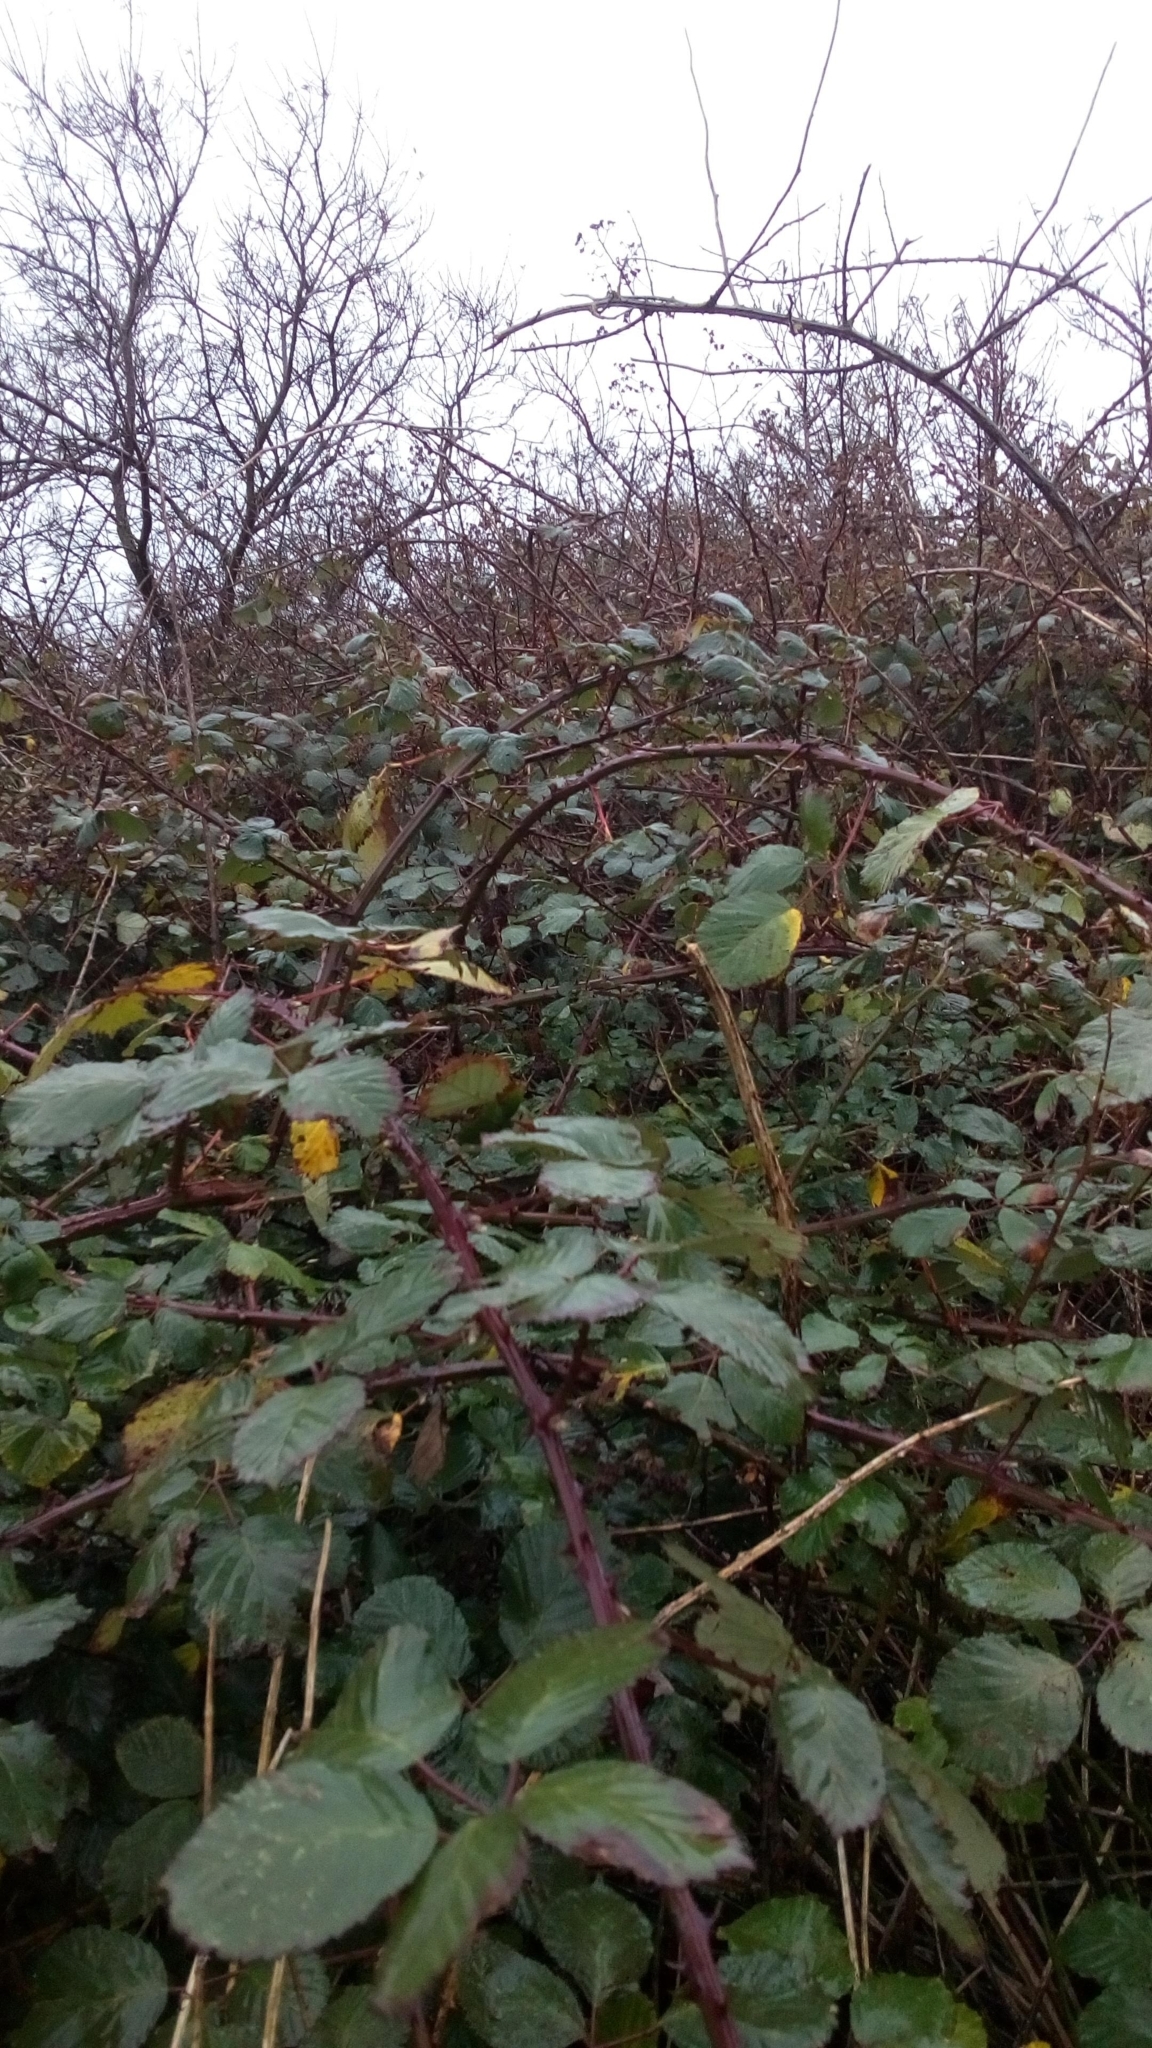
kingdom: Plantae
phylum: Tracheophyta
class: Magnoliopsida
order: Rosales
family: Rosaceae
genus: Rubus
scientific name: Rubus
